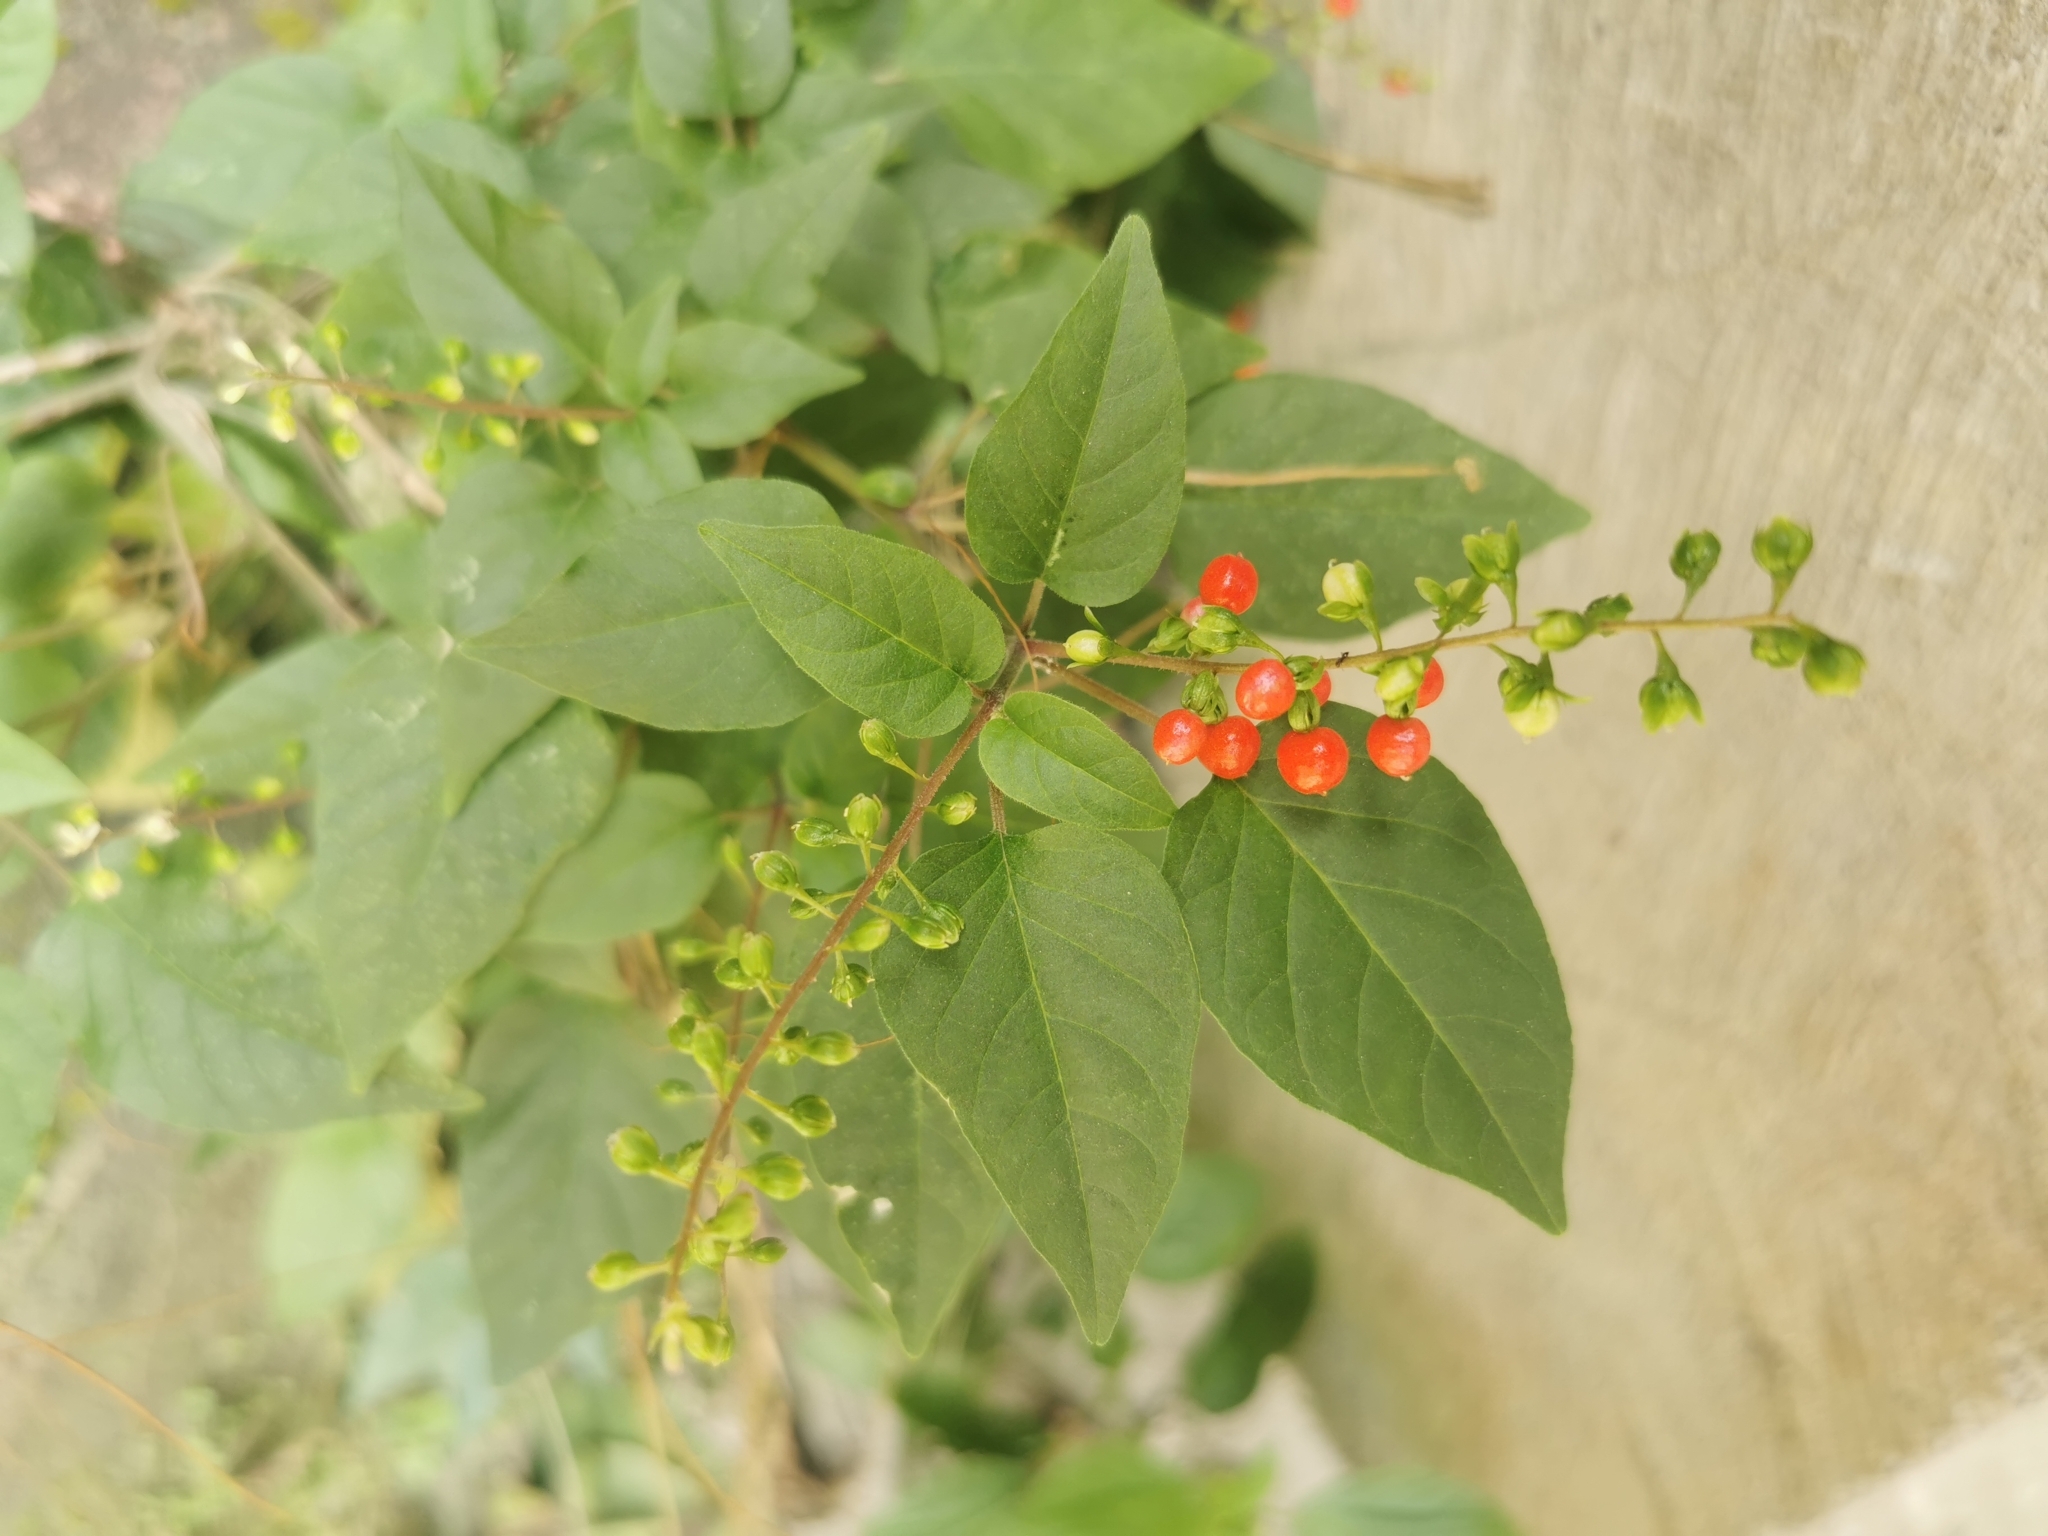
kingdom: Plantae
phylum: Tracheophyta
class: Magnoliopsida
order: Caryophyllales
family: Phytolaccaceae
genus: Rivina
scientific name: Rivina humilis
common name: Rougeplant
